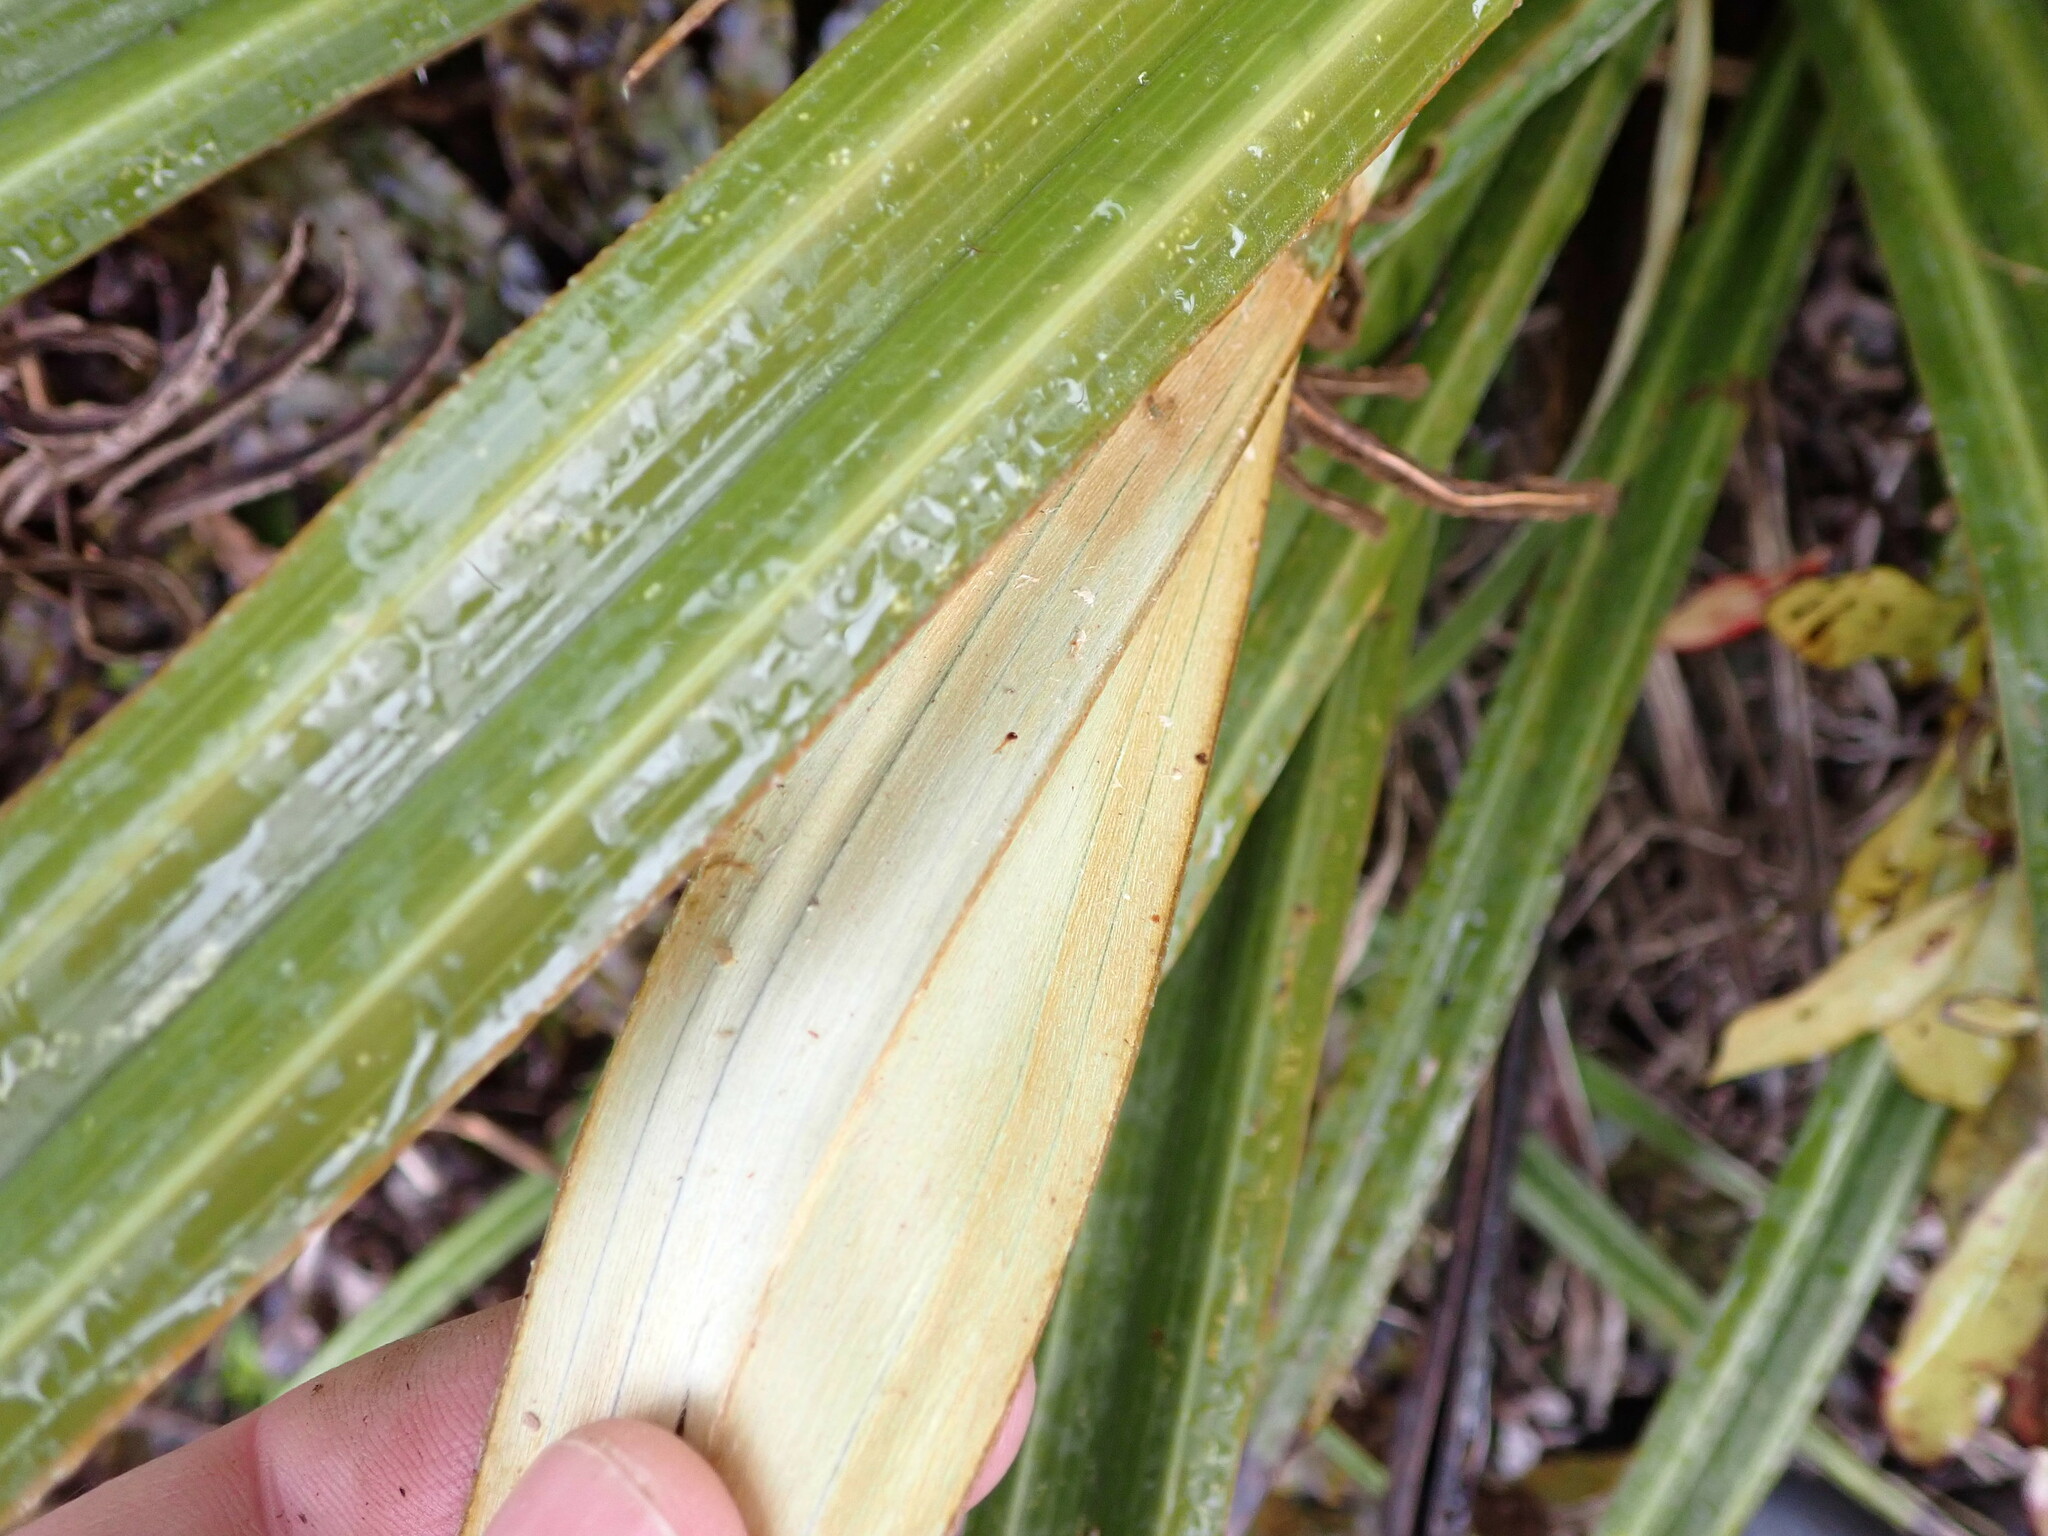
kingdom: Plantae
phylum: Tracheophyta
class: Liliopsida
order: Asparagales
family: Asteliaceae
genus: Astelia
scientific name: Astelia nervosa
